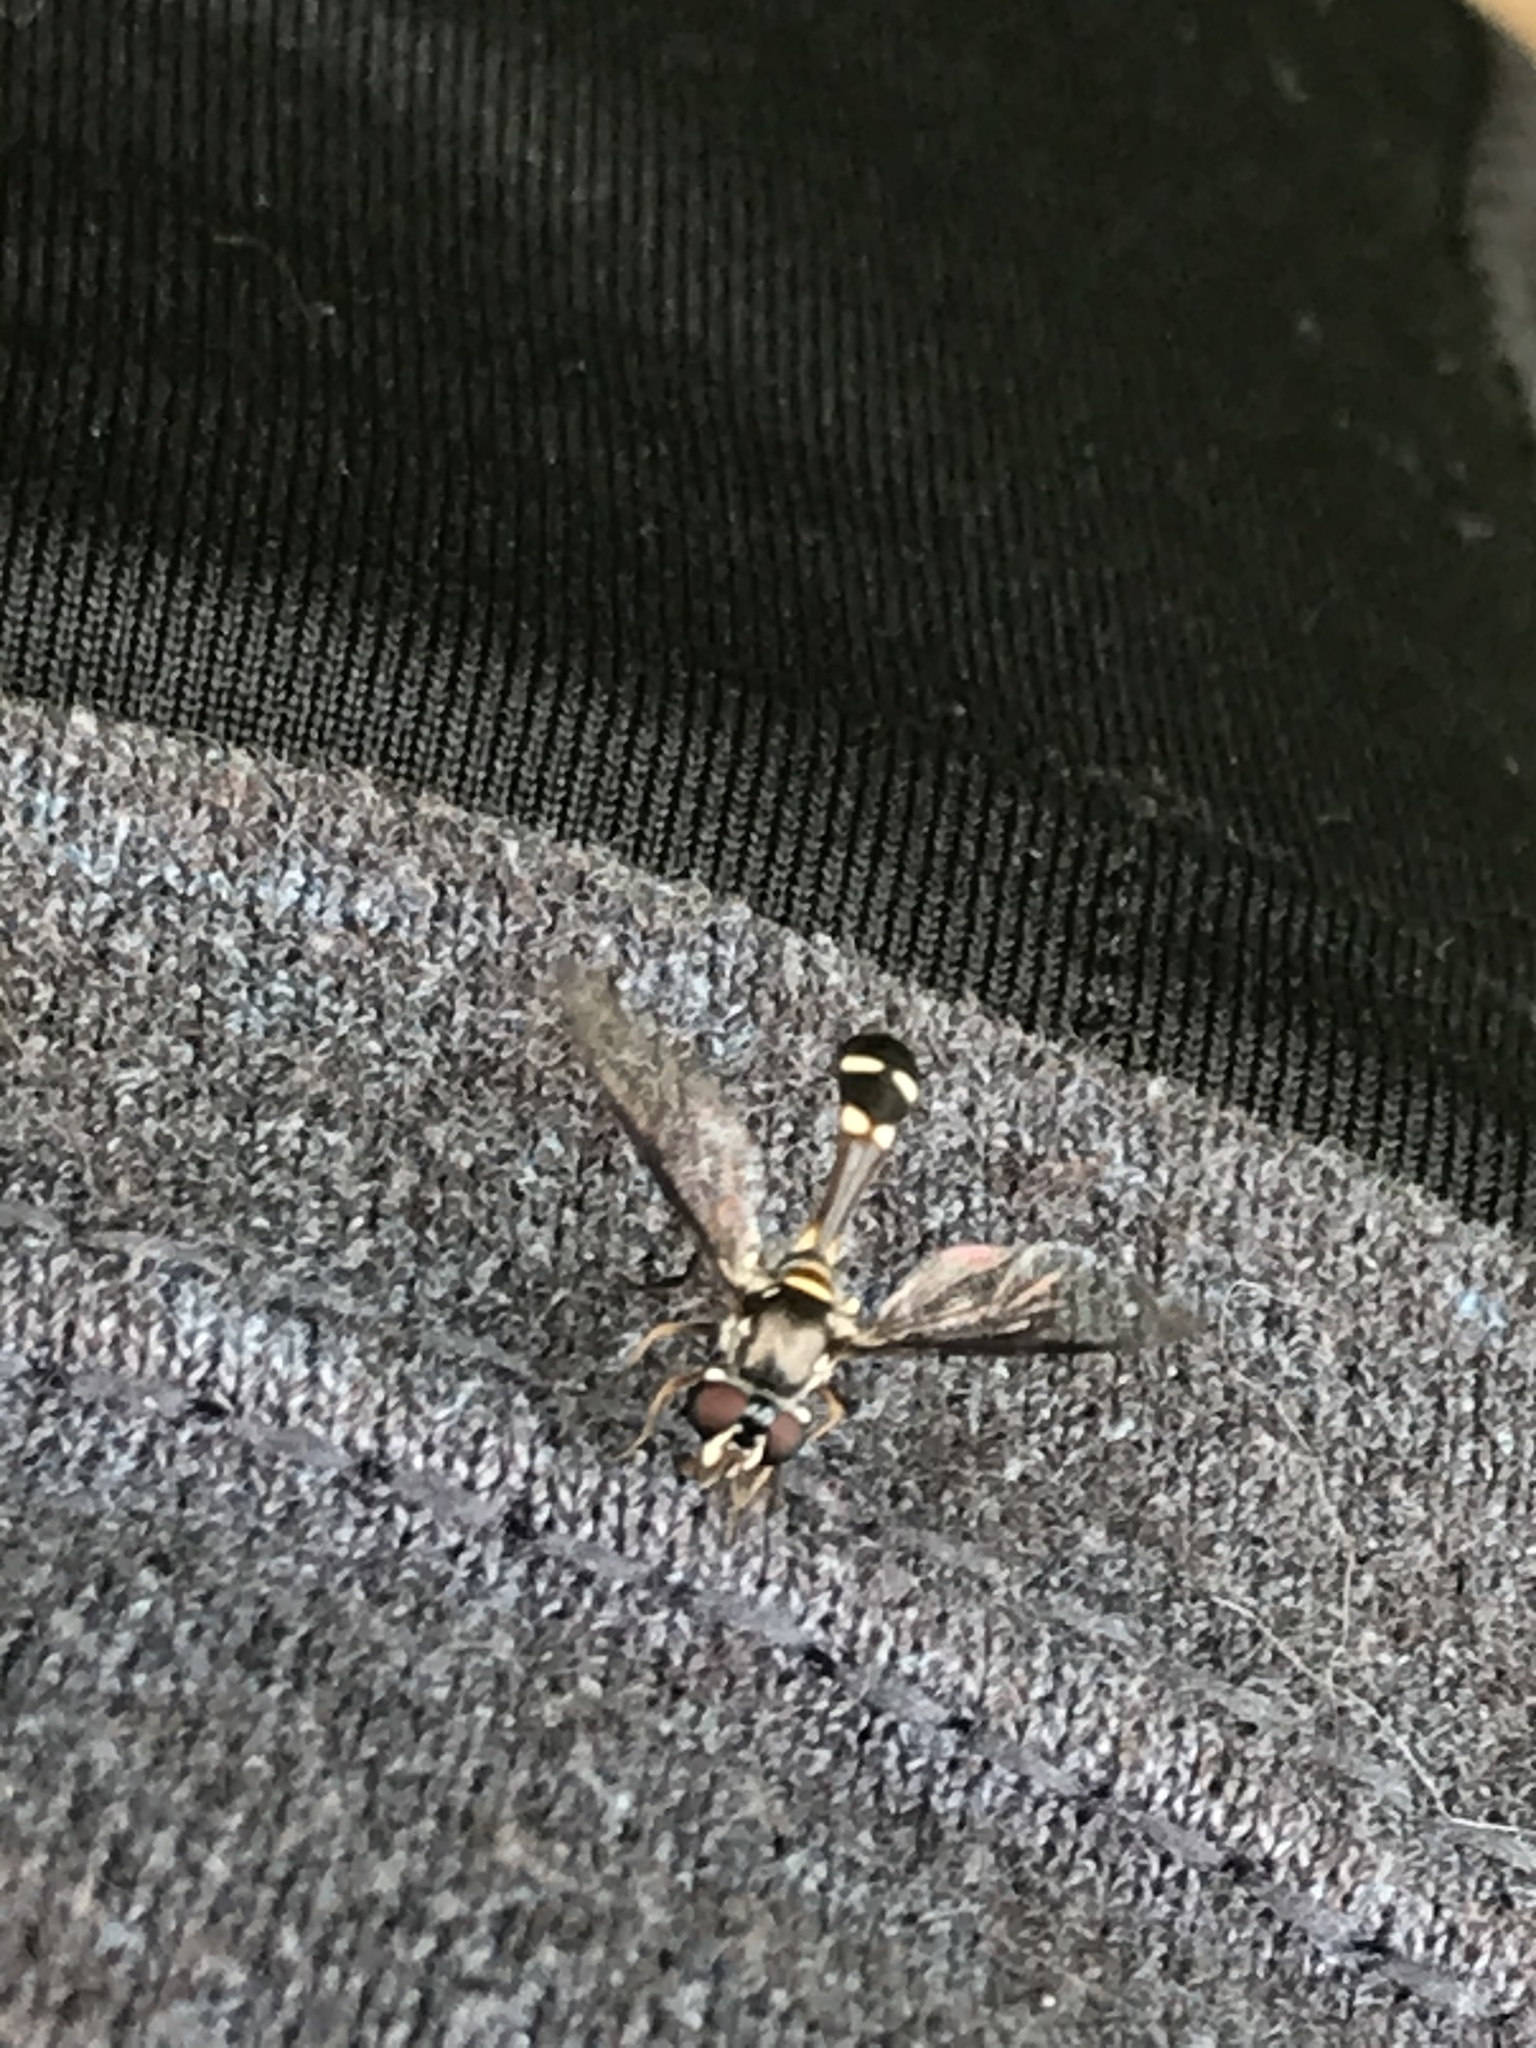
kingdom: Animalia
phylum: Arthropoda
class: Insecta
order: Diptera
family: Syrphidae
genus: Dioprosopa
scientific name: Dioprosopa clavatus
